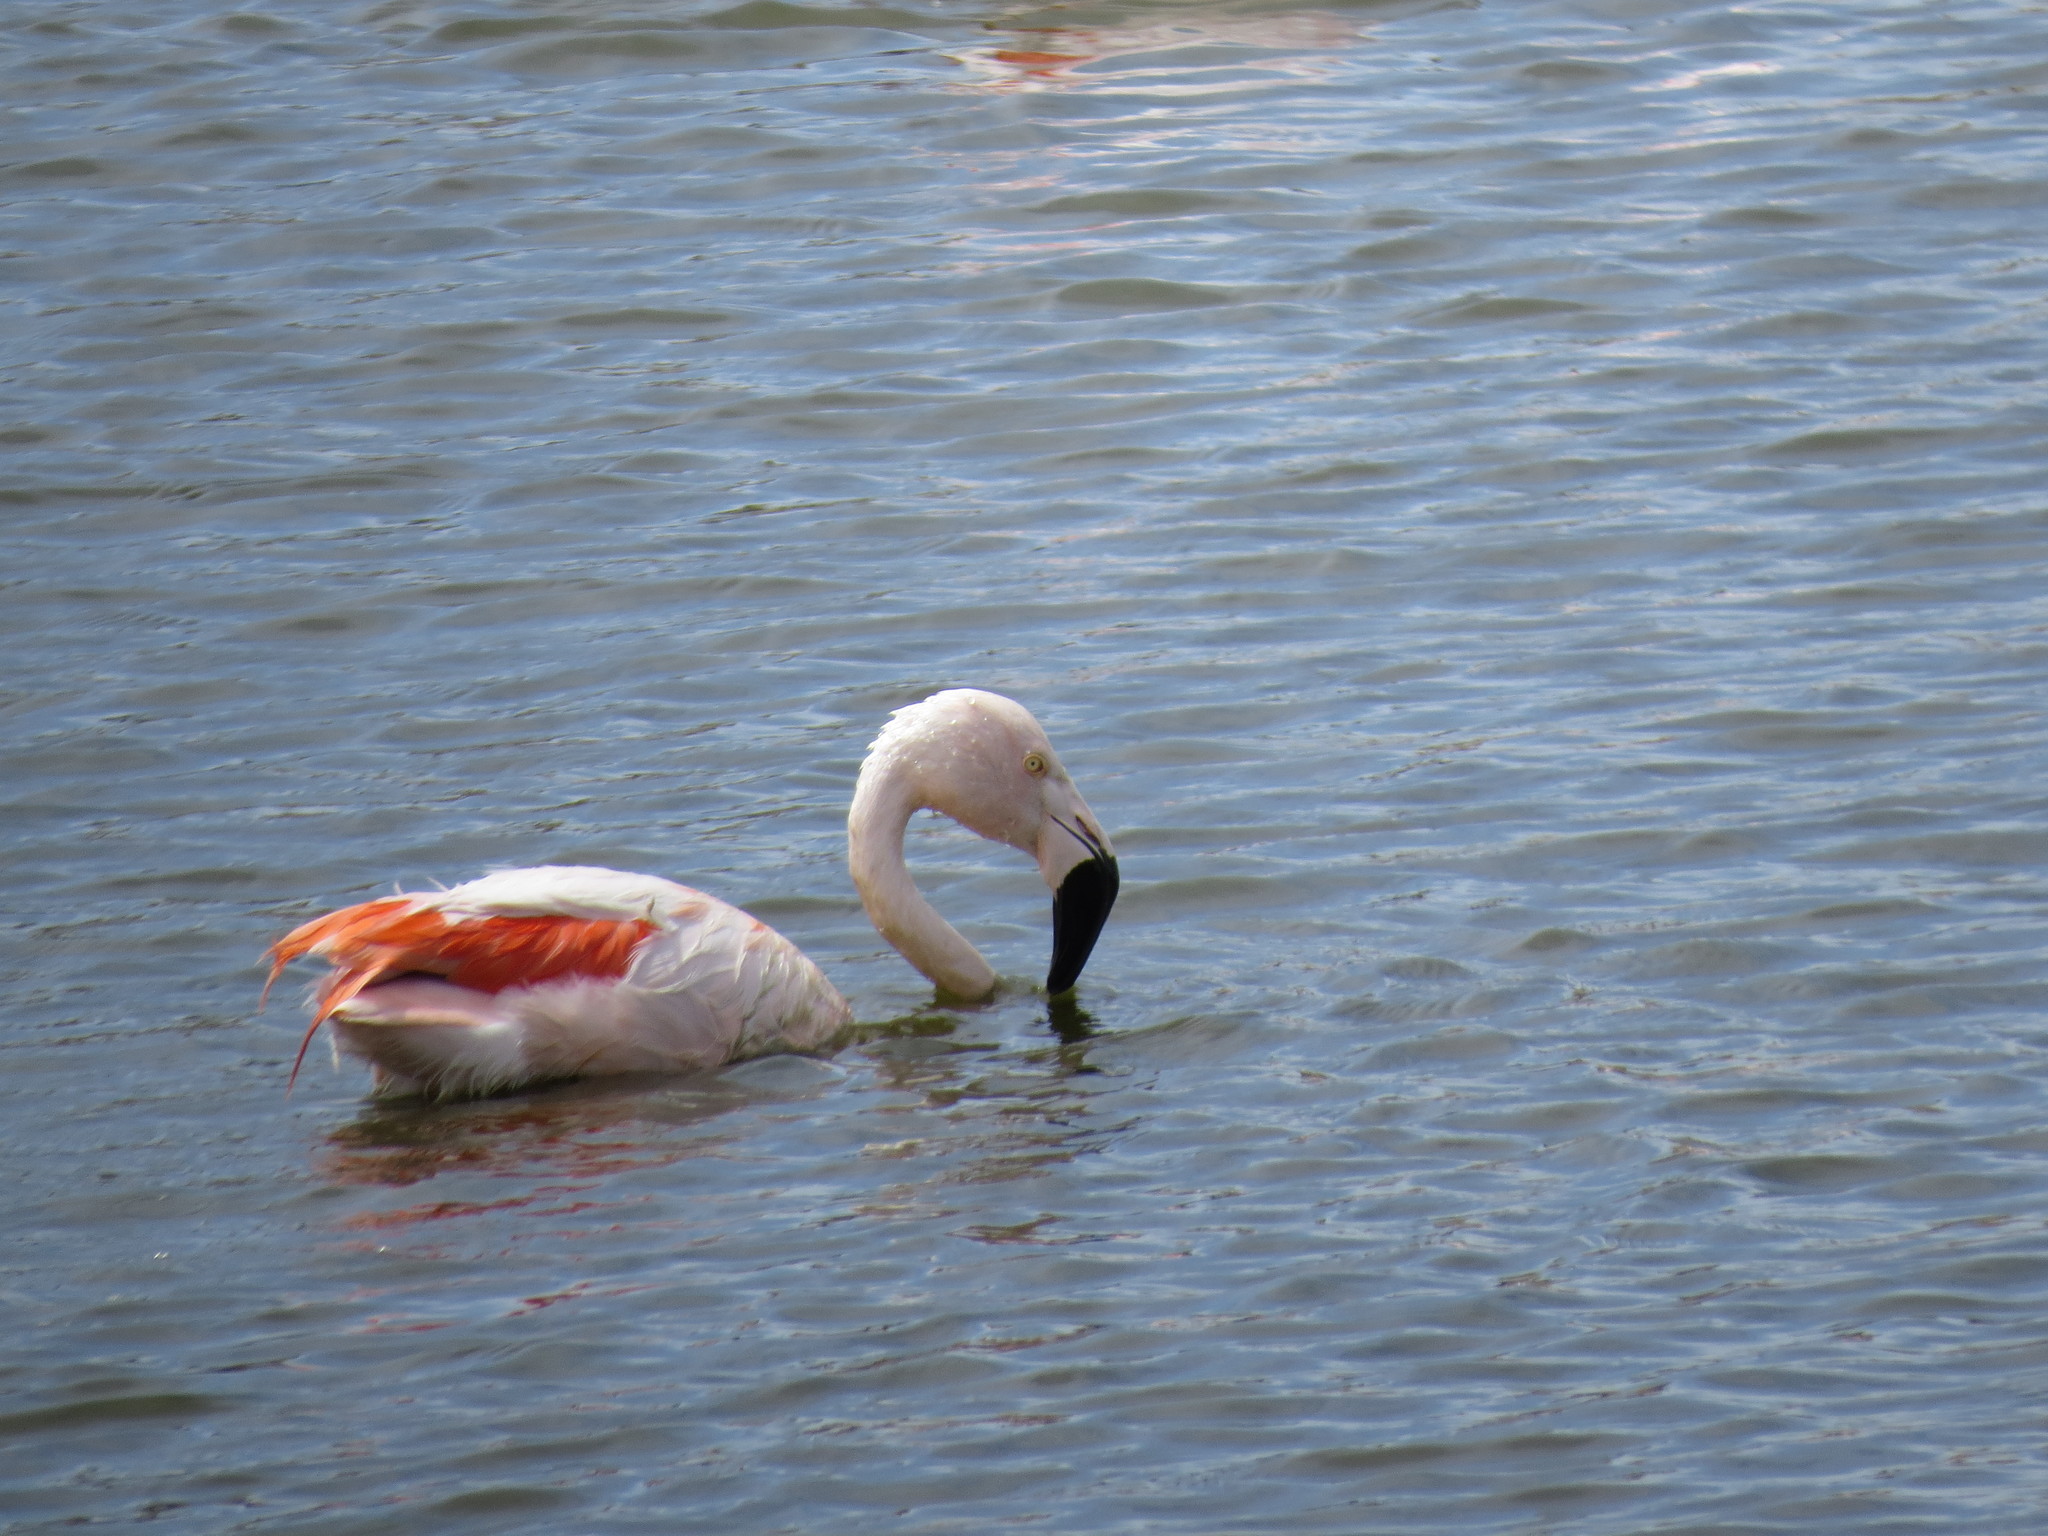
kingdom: Animalia
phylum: Chordata
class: Aves
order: Phoenicopteriformes
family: Phoenicopteridae
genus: Phoenicopterus
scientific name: Phoenicopterus chilensis
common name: Chilean flamingo
